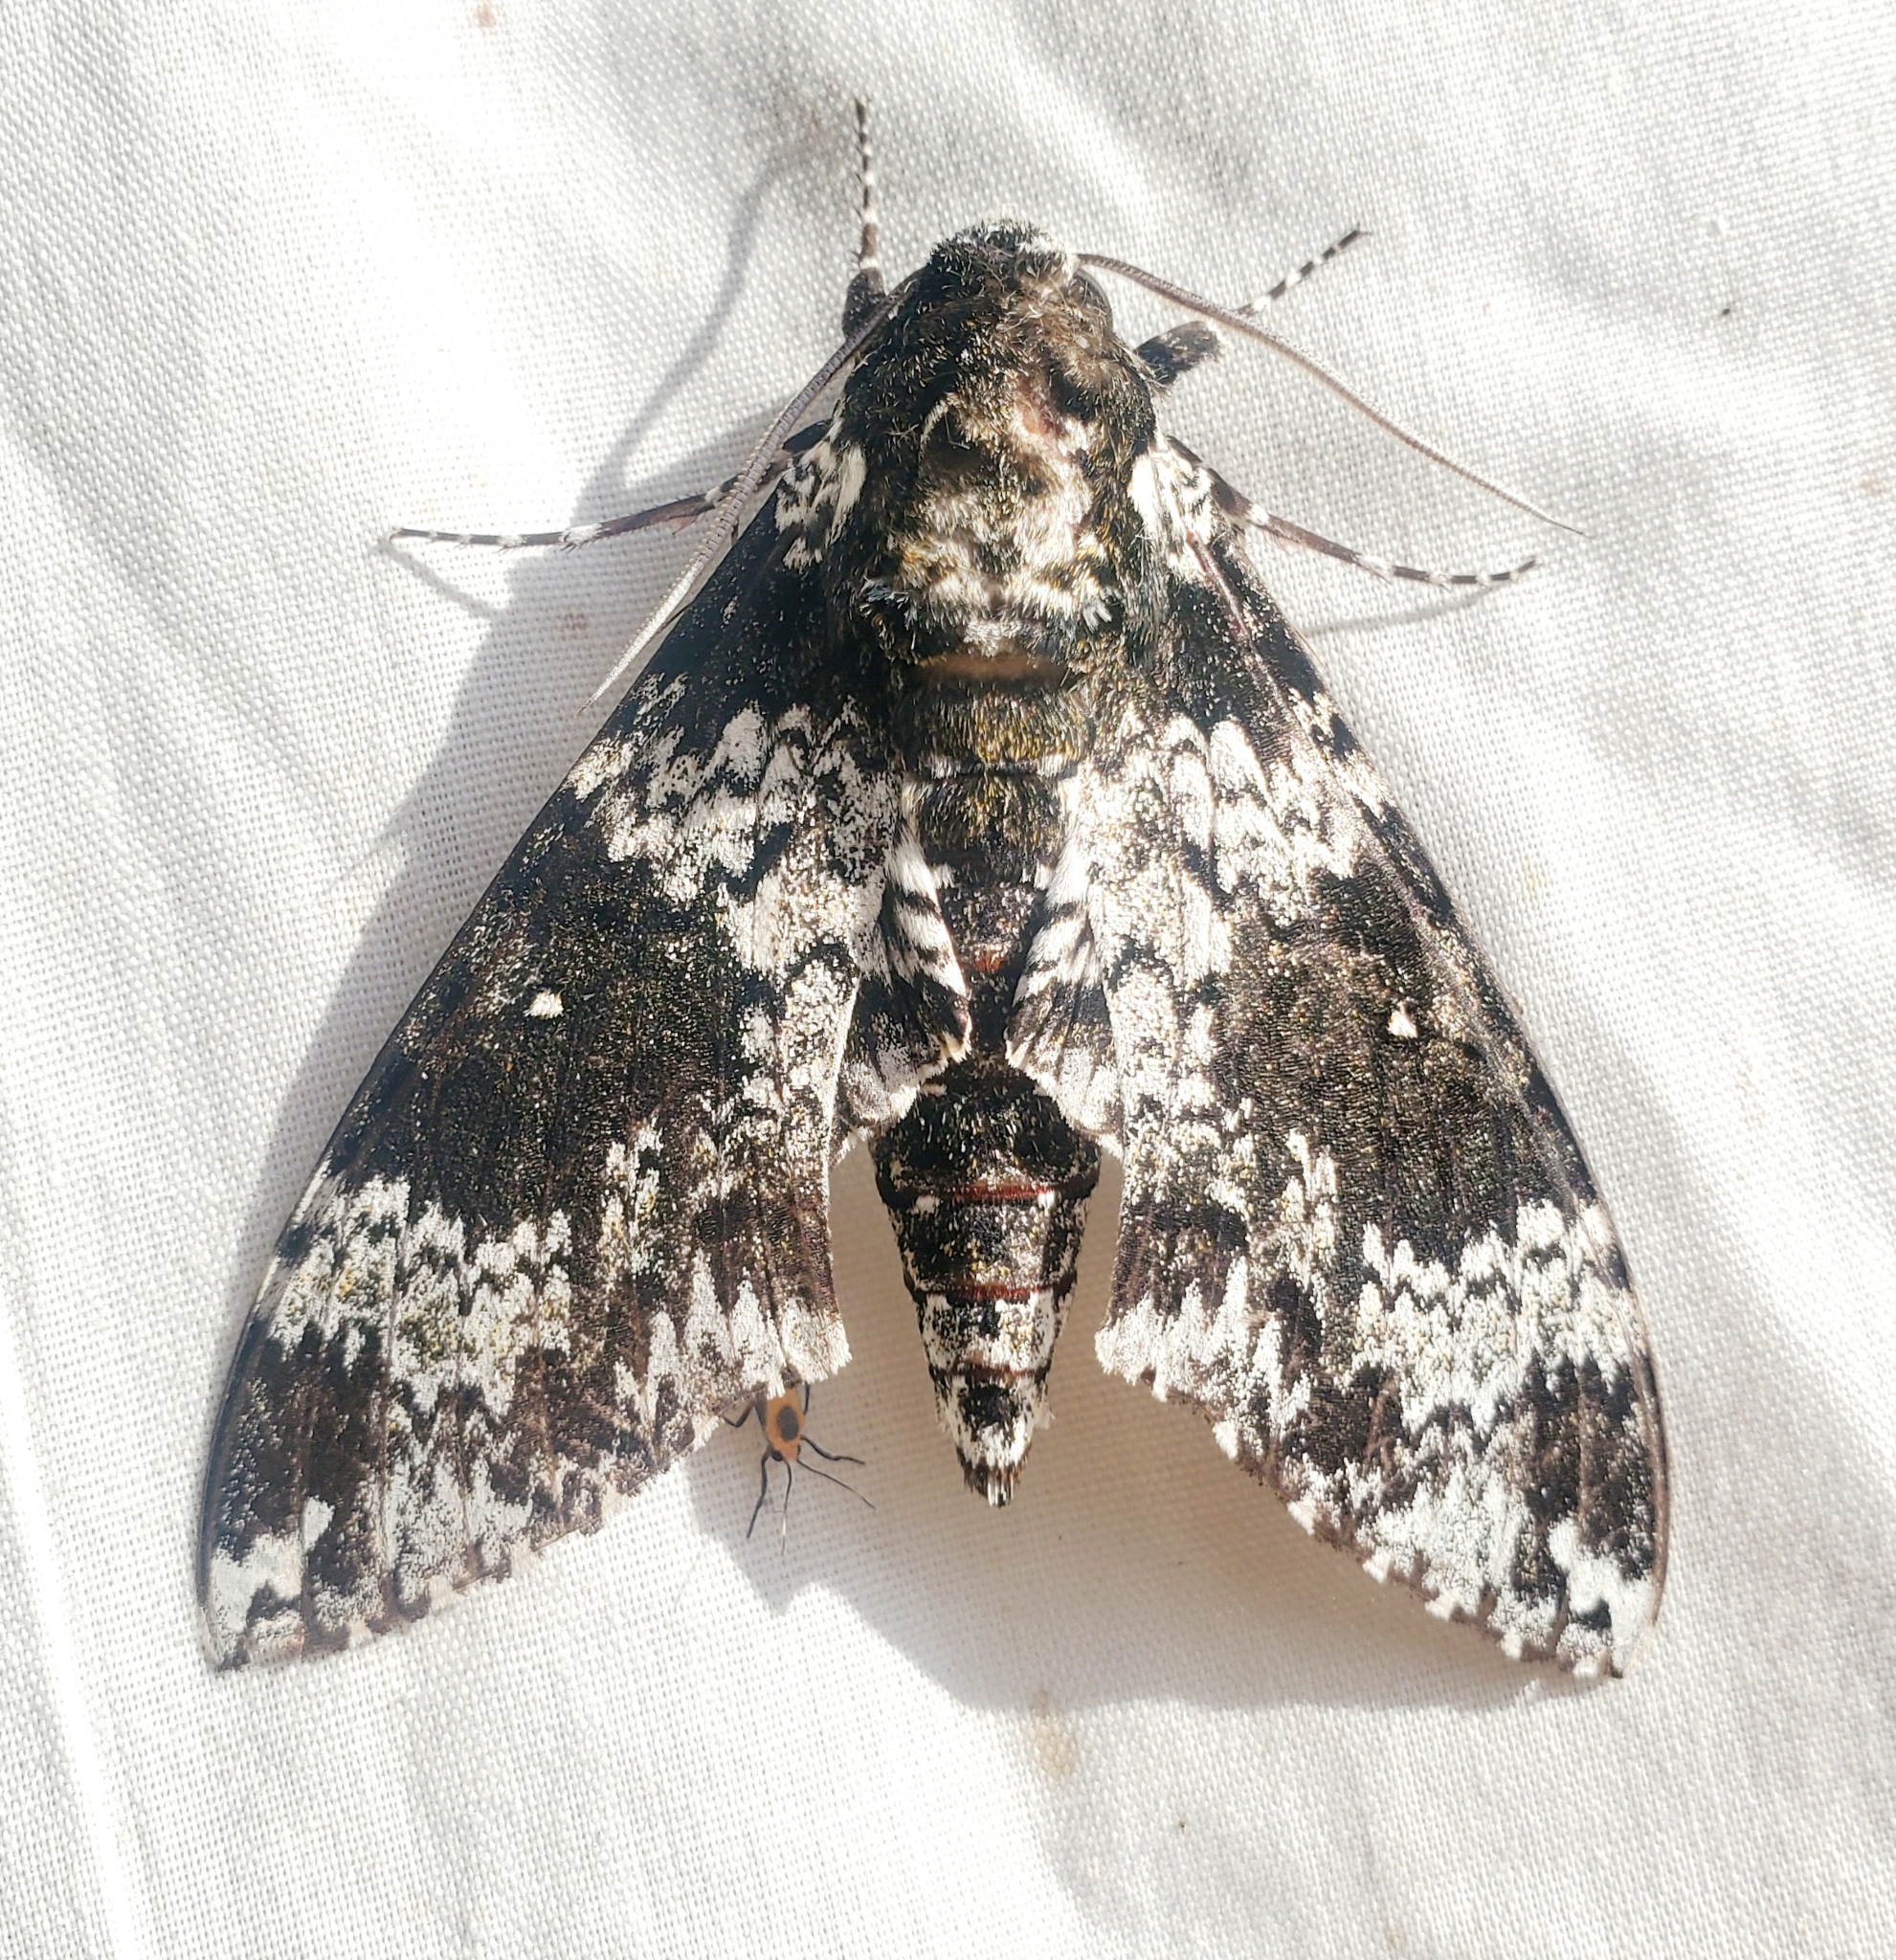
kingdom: Animalia
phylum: Arthropoda
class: Insecta
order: Lepidoptera
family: Sphingidae
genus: Manduca
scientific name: Manduca rustica
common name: Rustic sphinx
